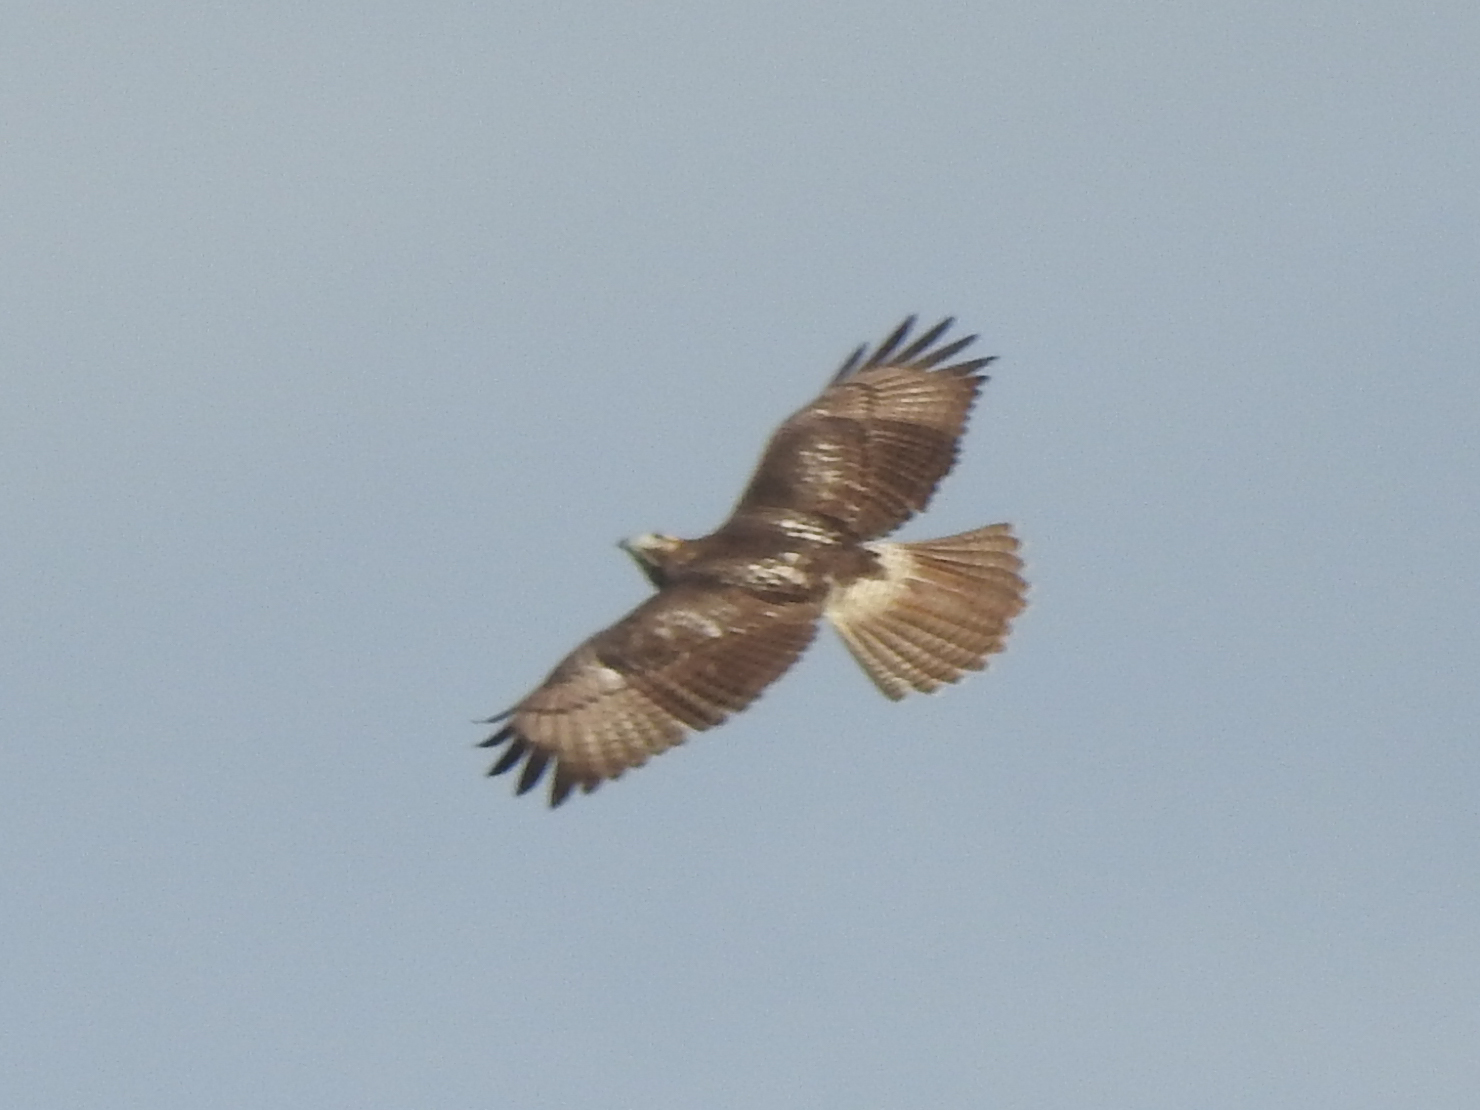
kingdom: Animalia
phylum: Chordata
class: Aves
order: Accipitriformes
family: Accipitridae
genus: Buteo
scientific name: Buteo jamaicensis
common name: Red-tailed hawk
